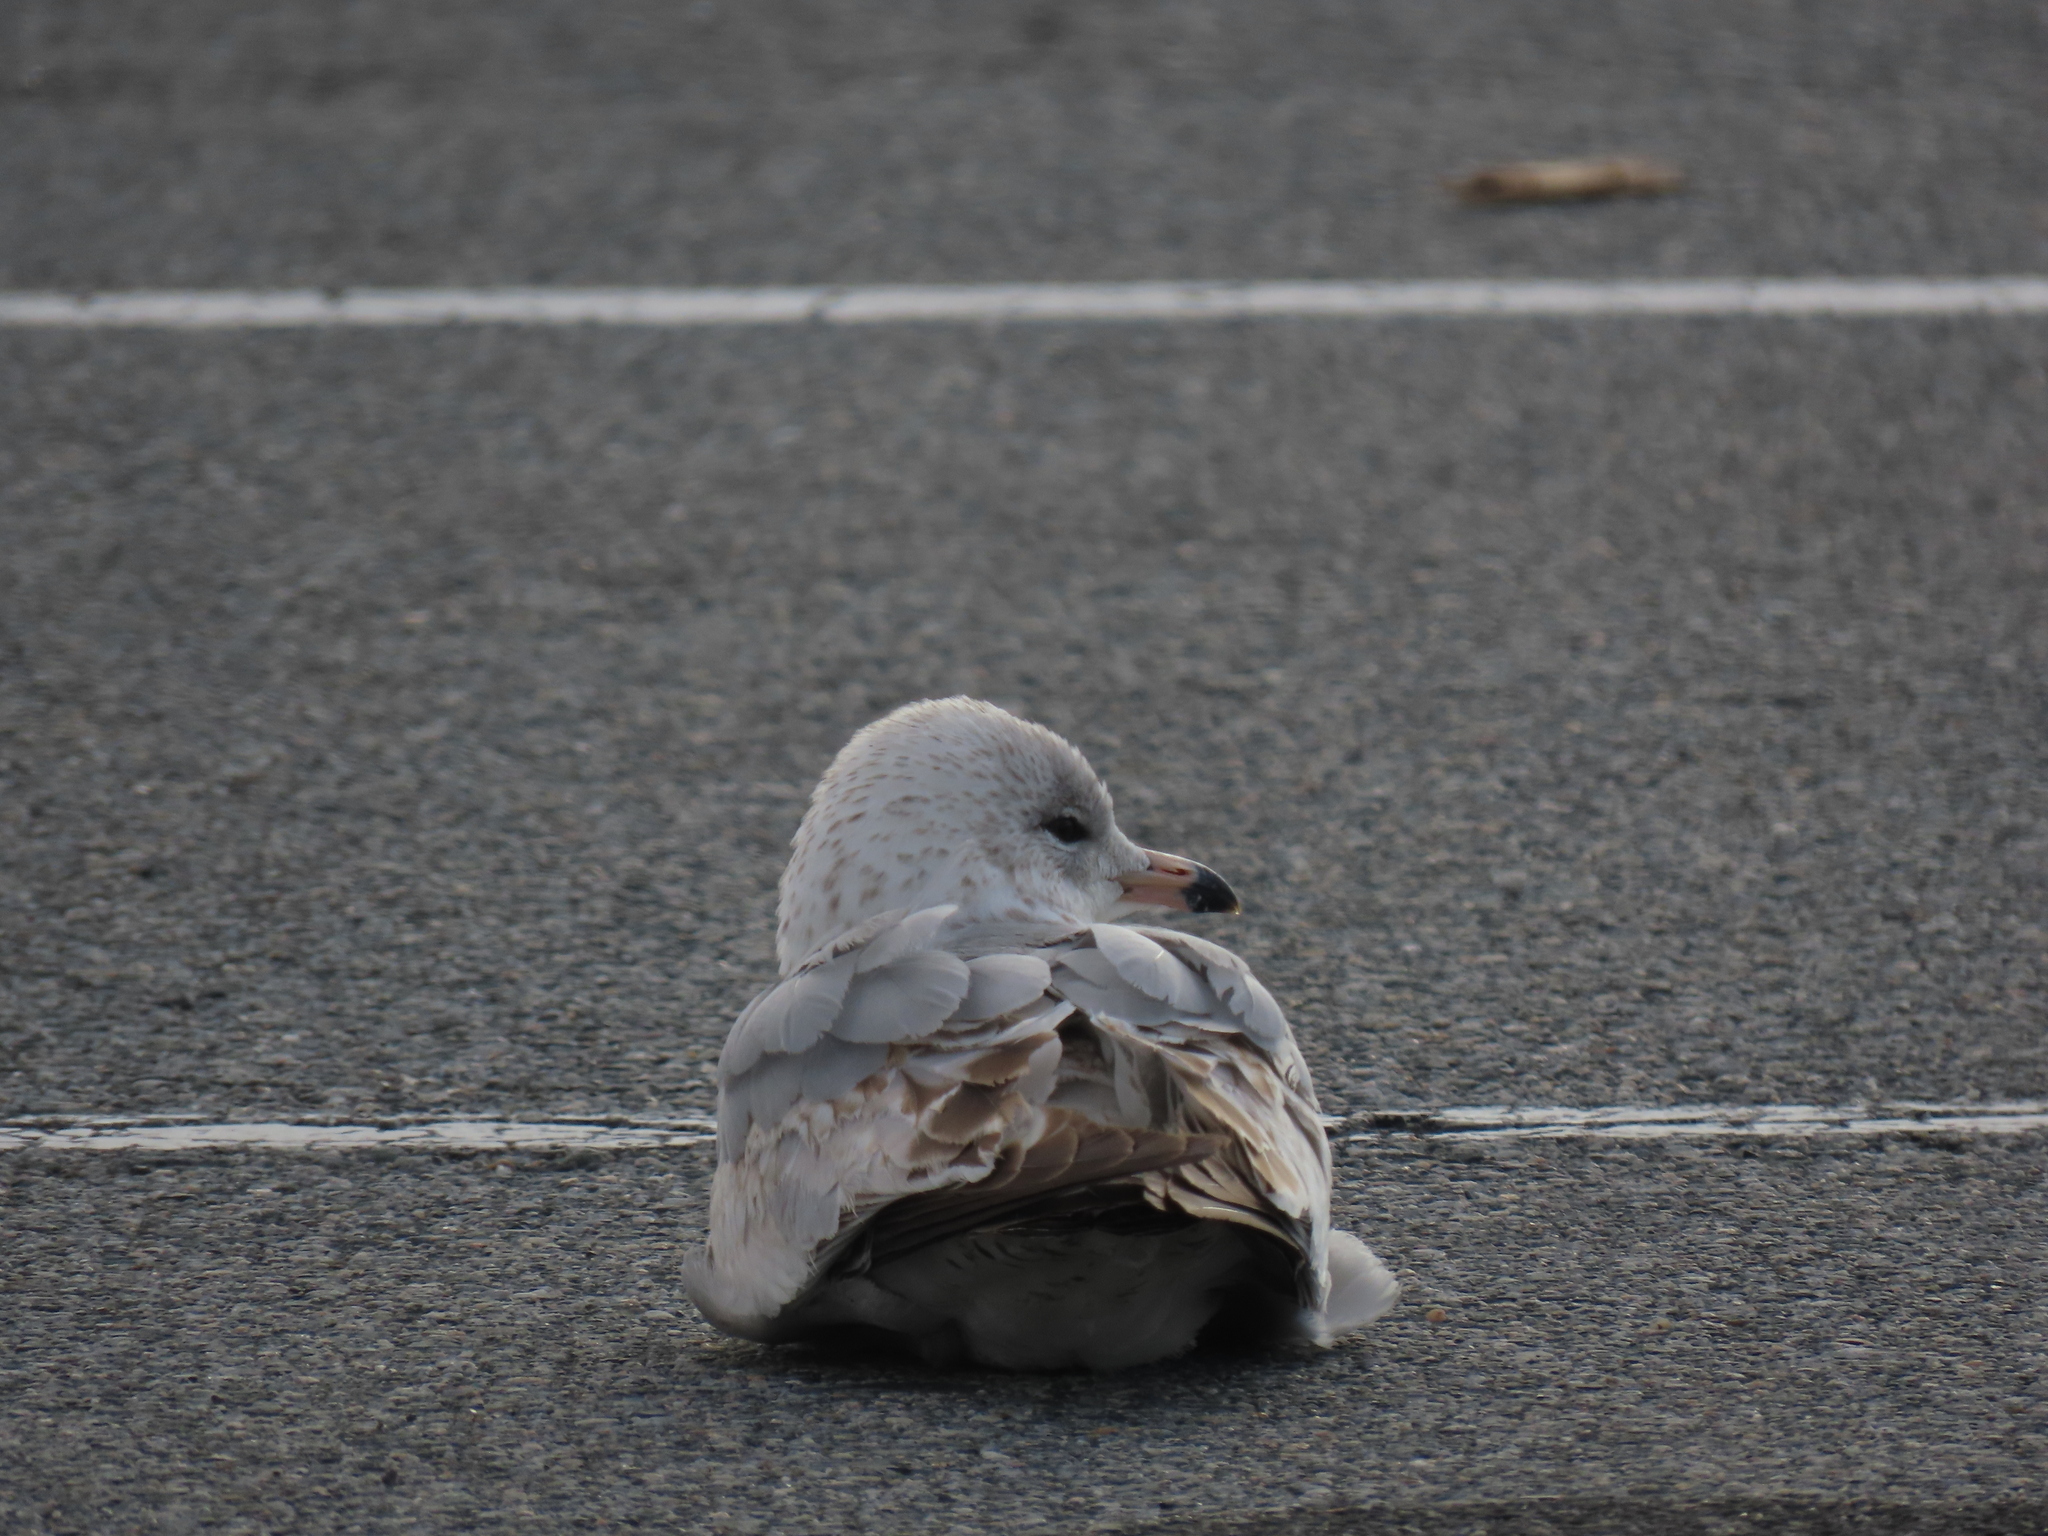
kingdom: Animalia
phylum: Chordata
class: Aves
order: Charadriiformes
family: Laridae
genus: Larus
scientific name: Larus delawarensis
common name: Ring-billed gull
